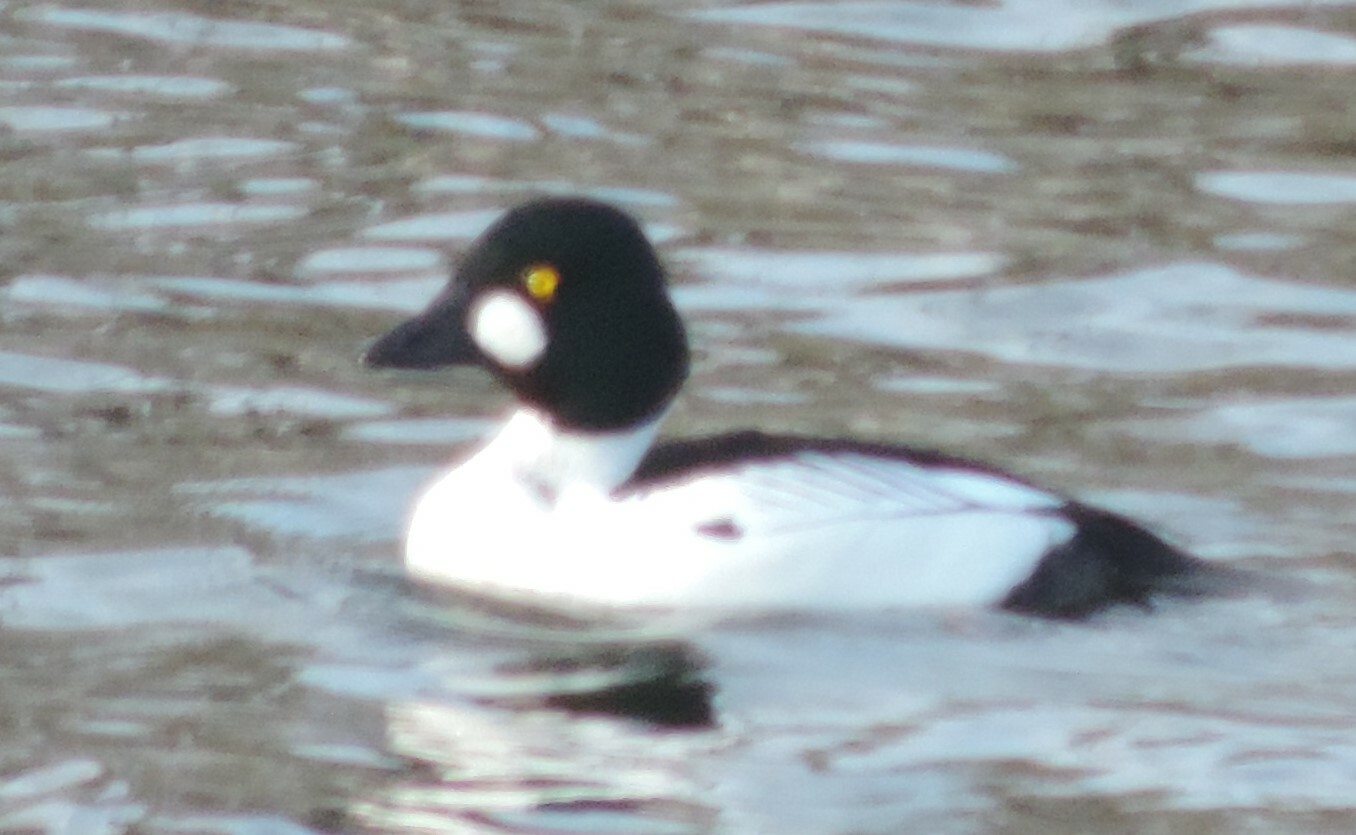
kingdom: Animalia
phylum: Chordata
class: Aves
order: Anseriformes
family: Anatidae
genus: Bucephala
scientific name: Bucephala clangula
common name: Common goldeneye
